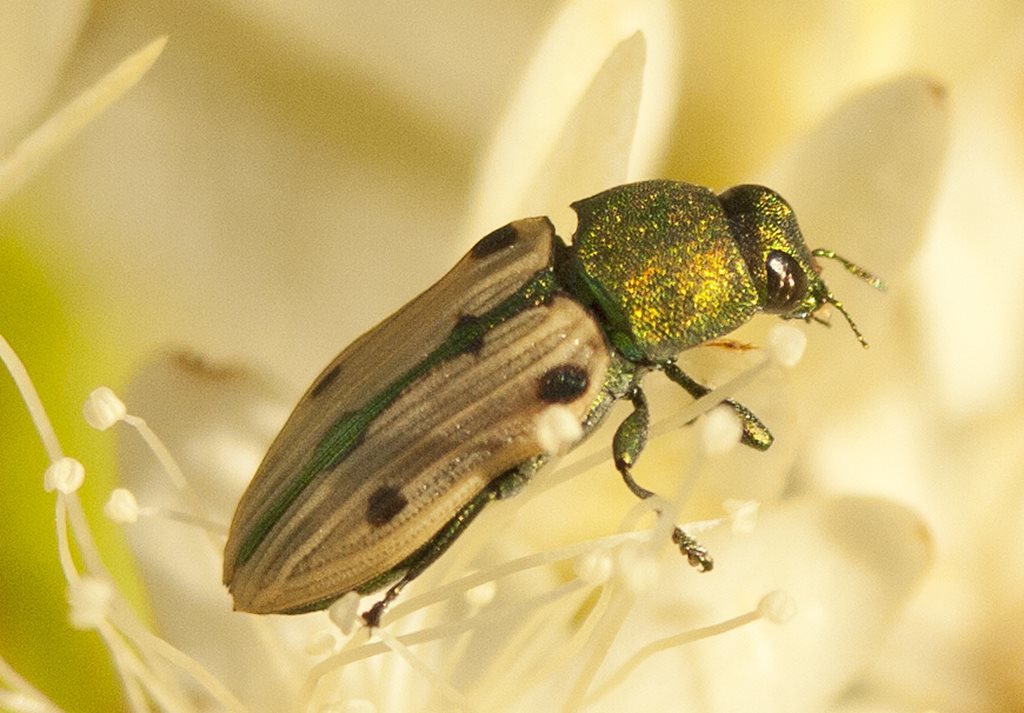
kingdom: Animalia
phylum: Arthropoda
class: Insecta
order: Coleoptera
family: Buprestidae
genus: Castiarina
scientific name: Castiarina sexguttata
